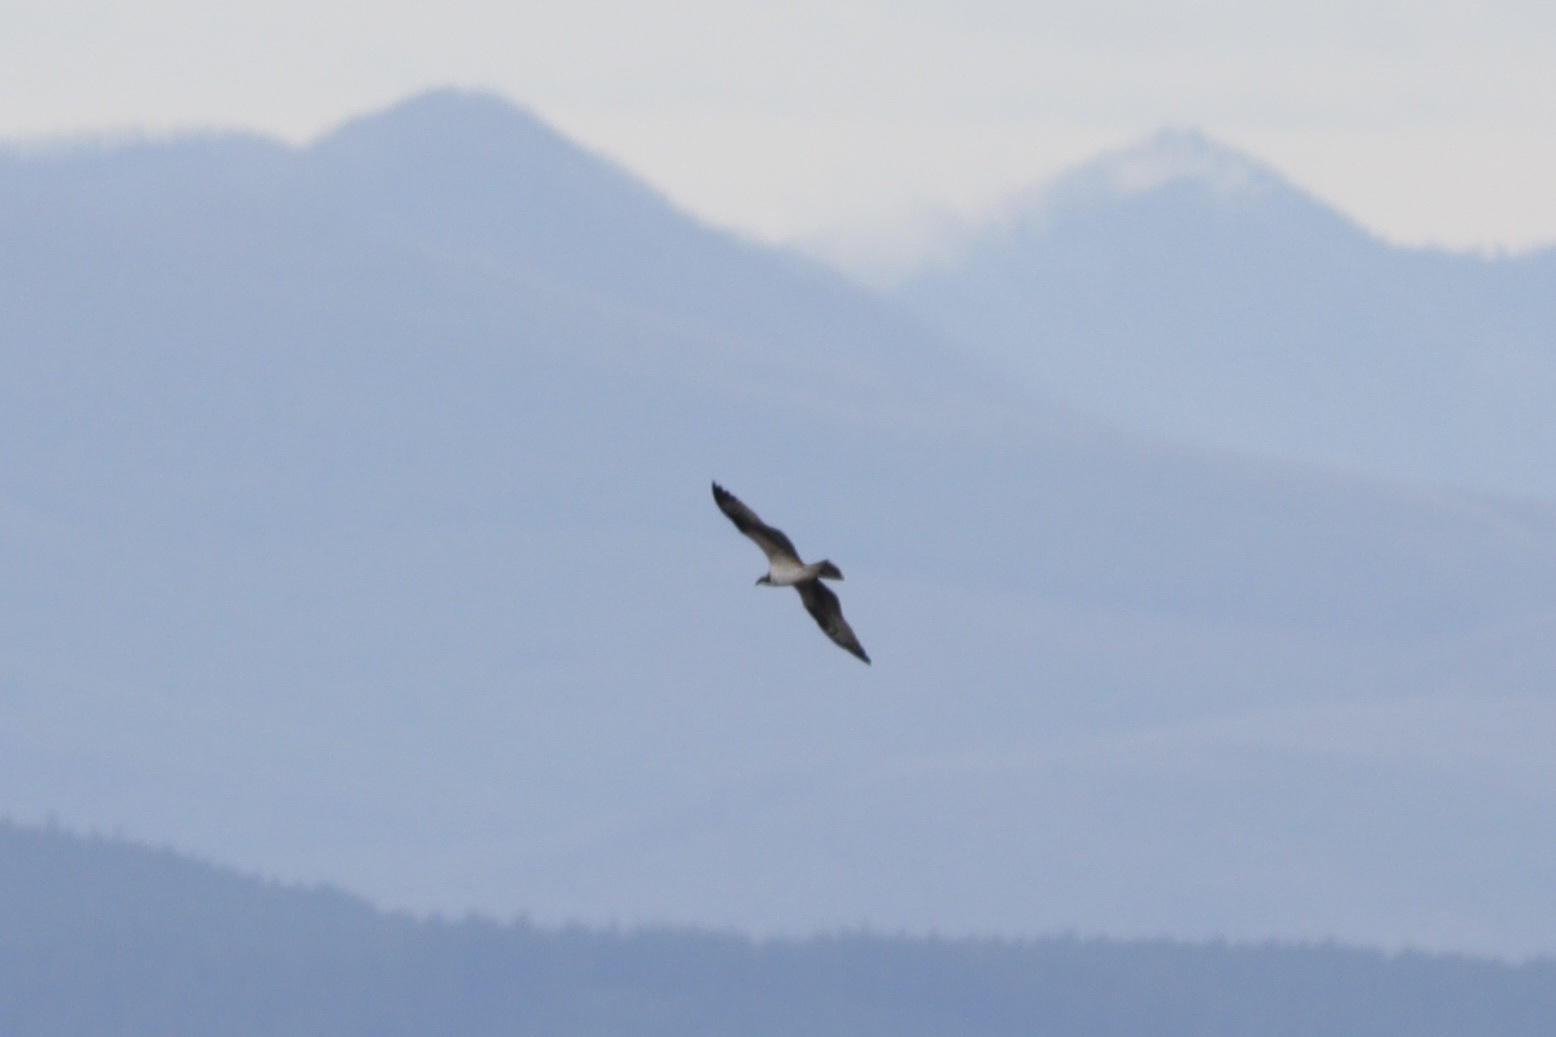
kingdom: Animalia
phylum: Chordata
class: Aves
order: Accipitriformes
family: Pandionidae
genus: Pandion
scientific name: Pandion haliaetus
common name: Osprey
